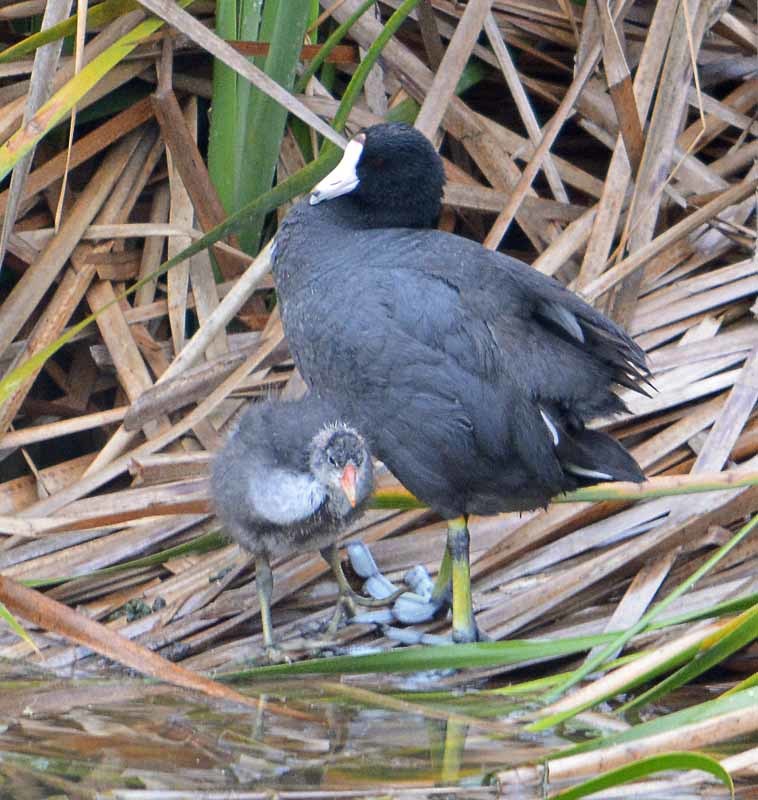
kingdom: Animalia
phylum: Chordata
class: Aves
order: Gruiformes
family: Rallidae
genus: Fulica
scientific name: Fulica americana
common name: American coot
